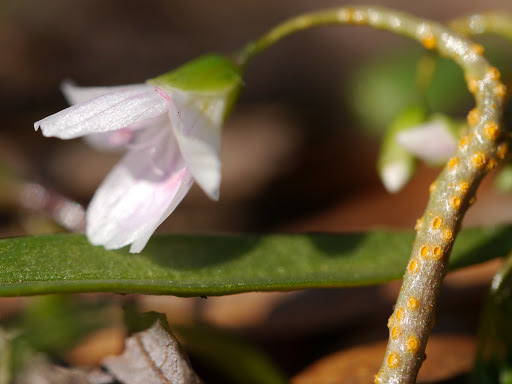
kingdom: Plantae
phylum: Tracheophyta
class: Magnoliopsida
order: Caryophyllales
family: Montiaceae
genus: Claytonia
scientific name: Claytonia virginica
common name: Virginia springbeauty
